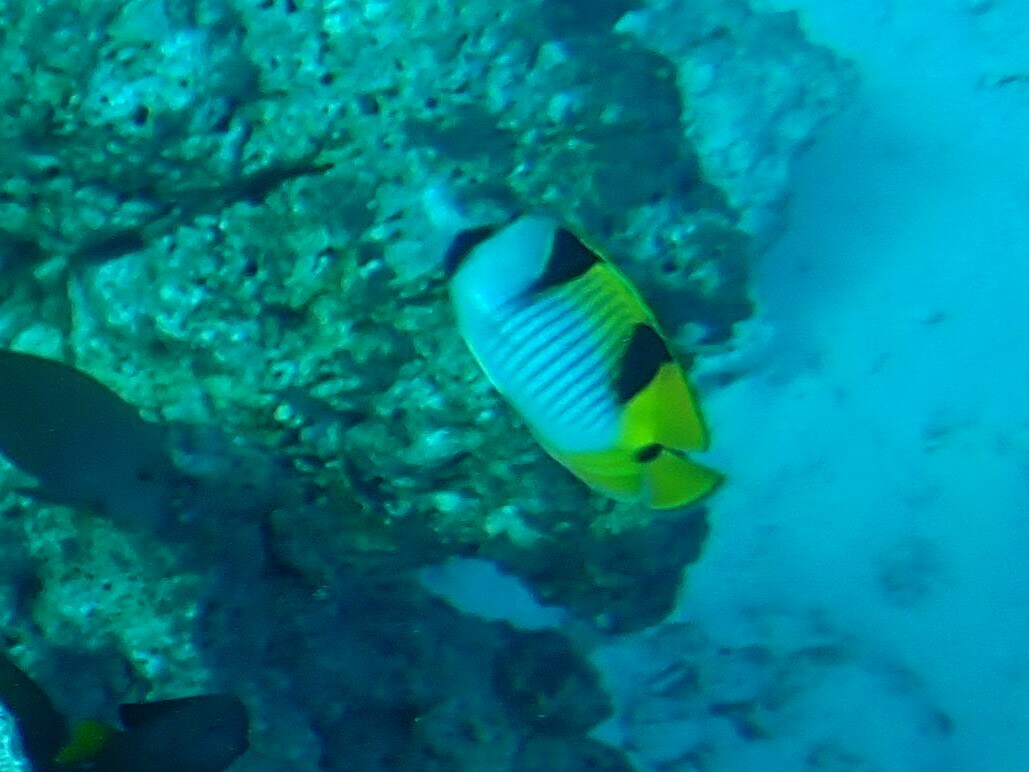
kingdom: Animalia
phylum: Chordata
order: Perciformes
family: Chaetodontidae
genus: Chaetodon
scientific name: Chaetodon falcula
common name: Blackwedged butterflyfish
